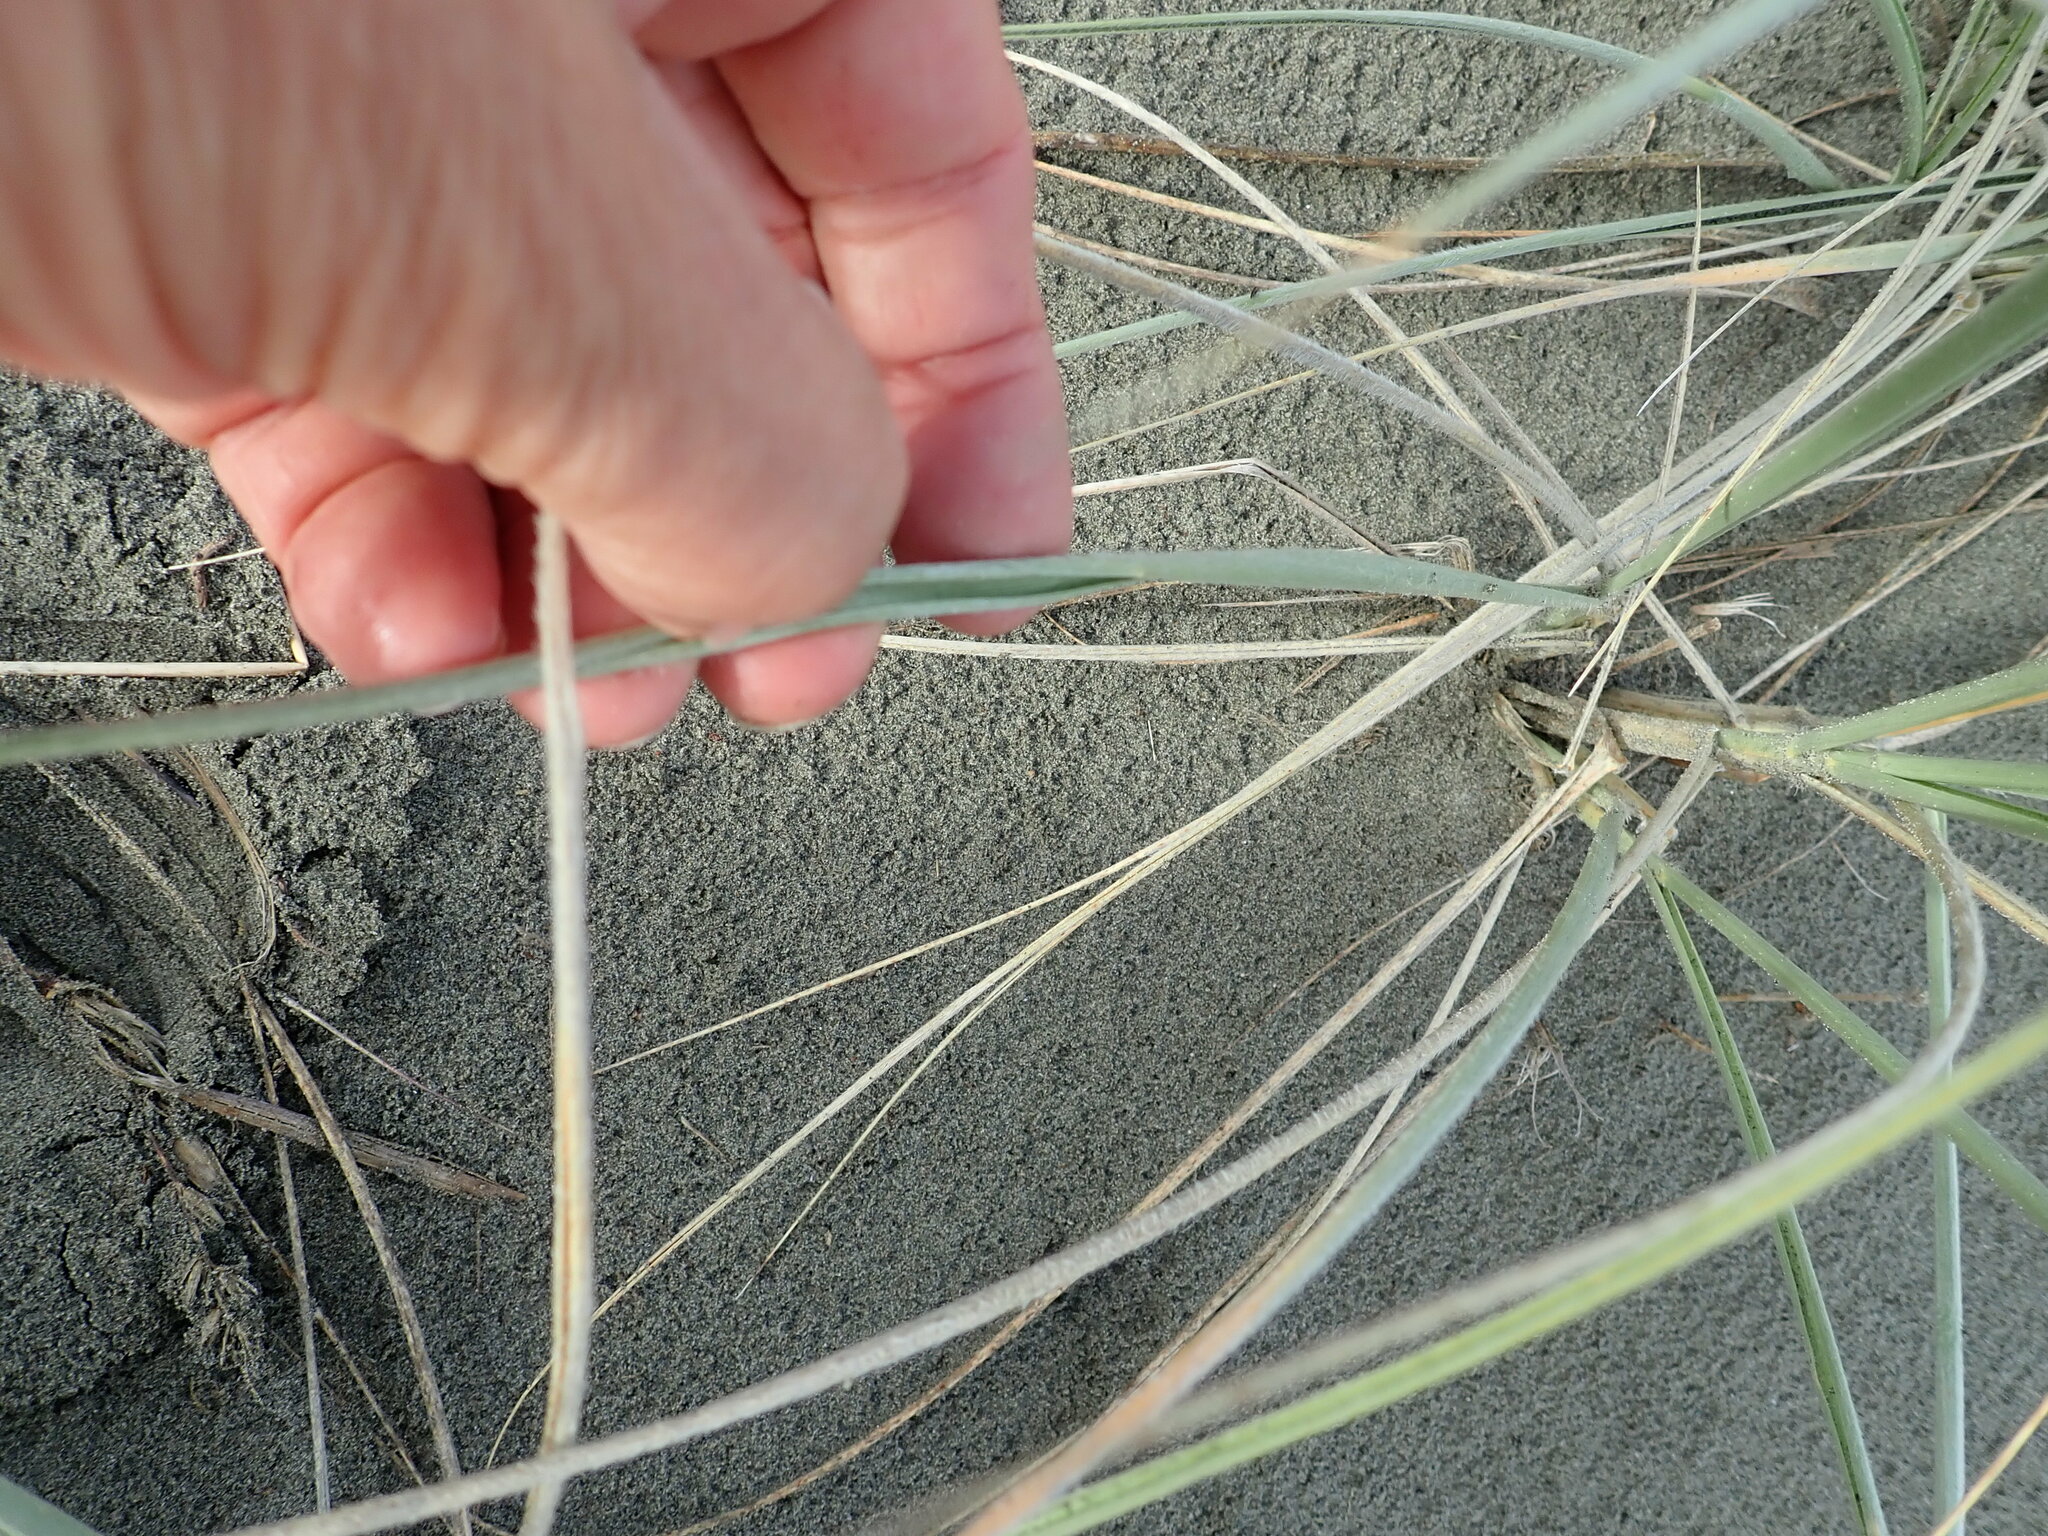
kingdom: Plantae
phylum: Tracheophyta
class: Liliopsida
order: Poales
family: Poaceae
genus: Spinifex
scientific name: Spinifex sericeus
